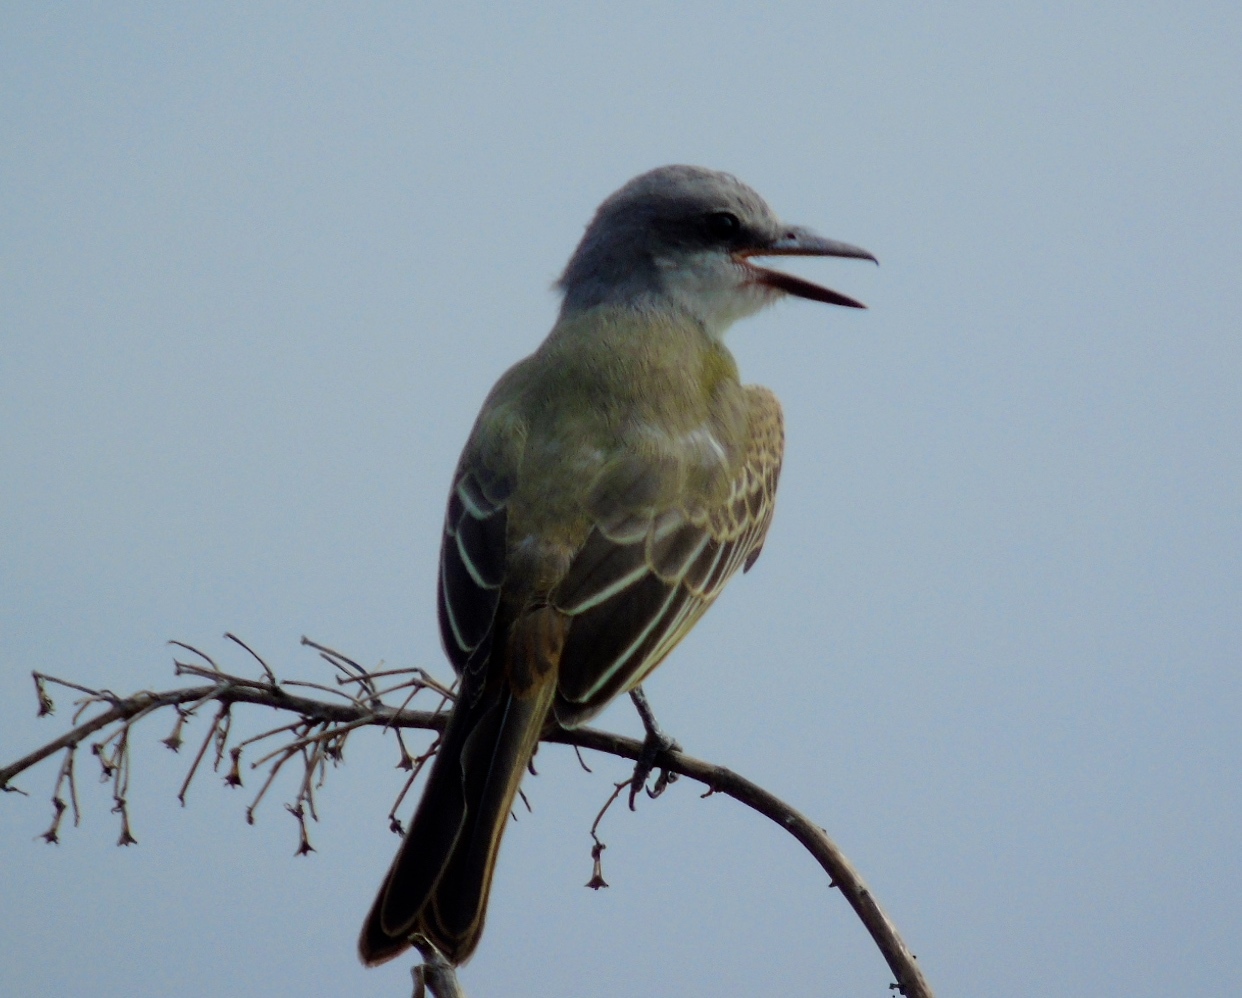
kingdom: Animalia
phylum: Chordata
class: Aves
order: Passeriformes
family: Tyrannidae
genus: Tyrannus
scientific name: Tyrannus melancholicus
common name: Tropical kingbird
